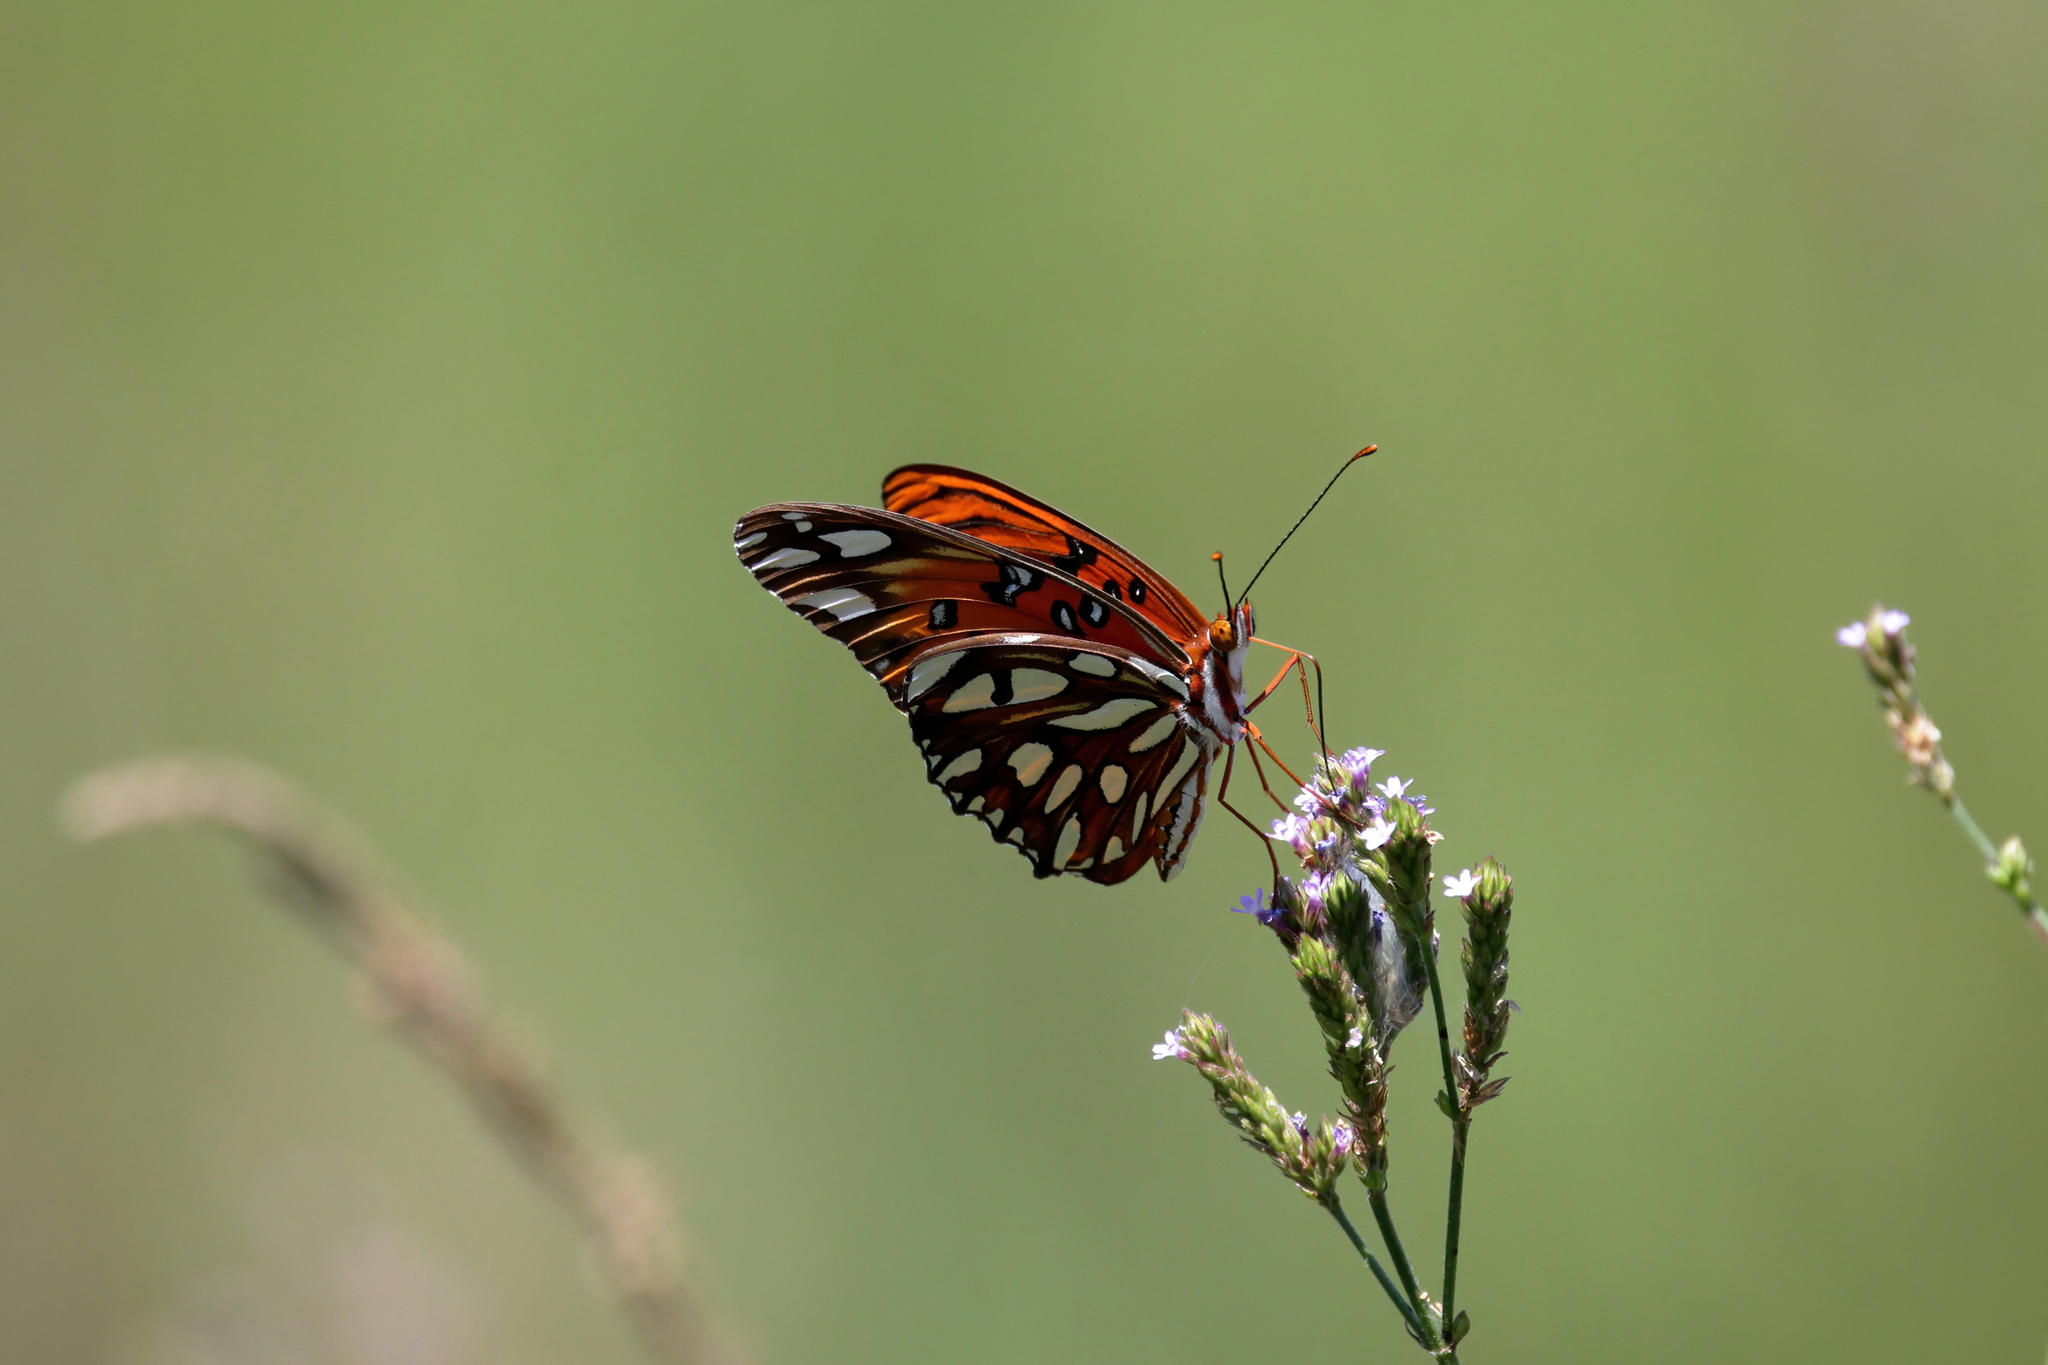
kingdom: Animalia
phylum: Arthropoda
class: Insecta
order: Lepidoptera
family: Nymphalidae
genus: Dione
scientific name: Dione vanillae
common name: Gulf fritillary
